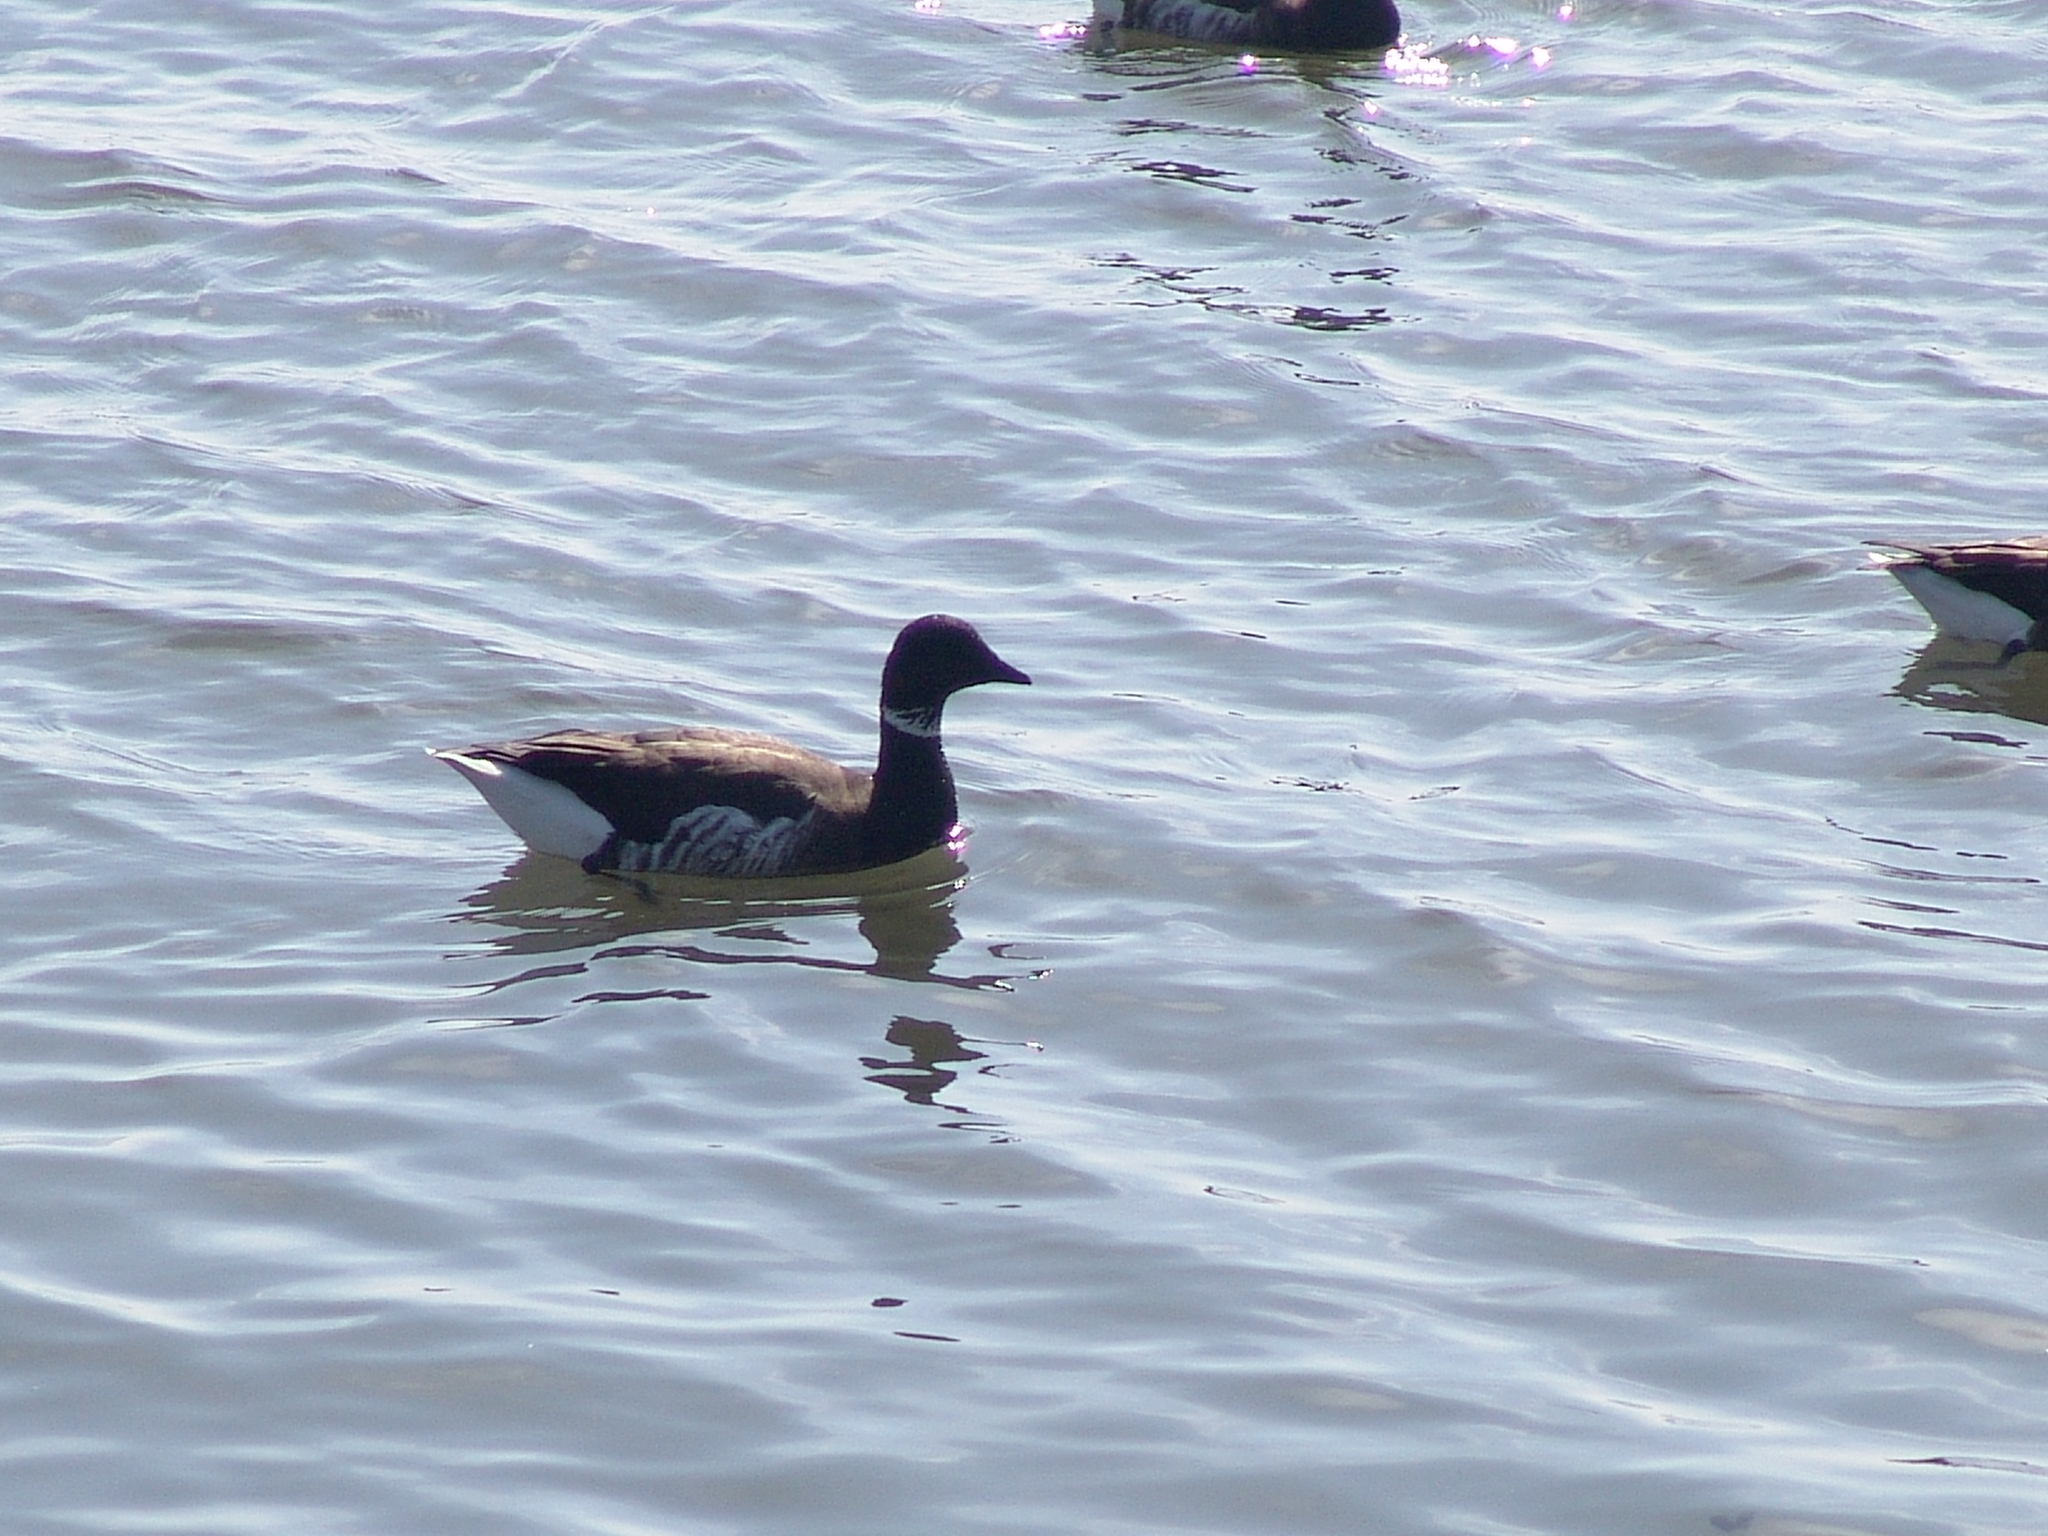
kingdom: Animalia
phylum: Chordata
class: Aves
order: Anseriformes
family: Anatidae
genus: Branta
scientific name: Branta bernicla
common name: Brant goose
